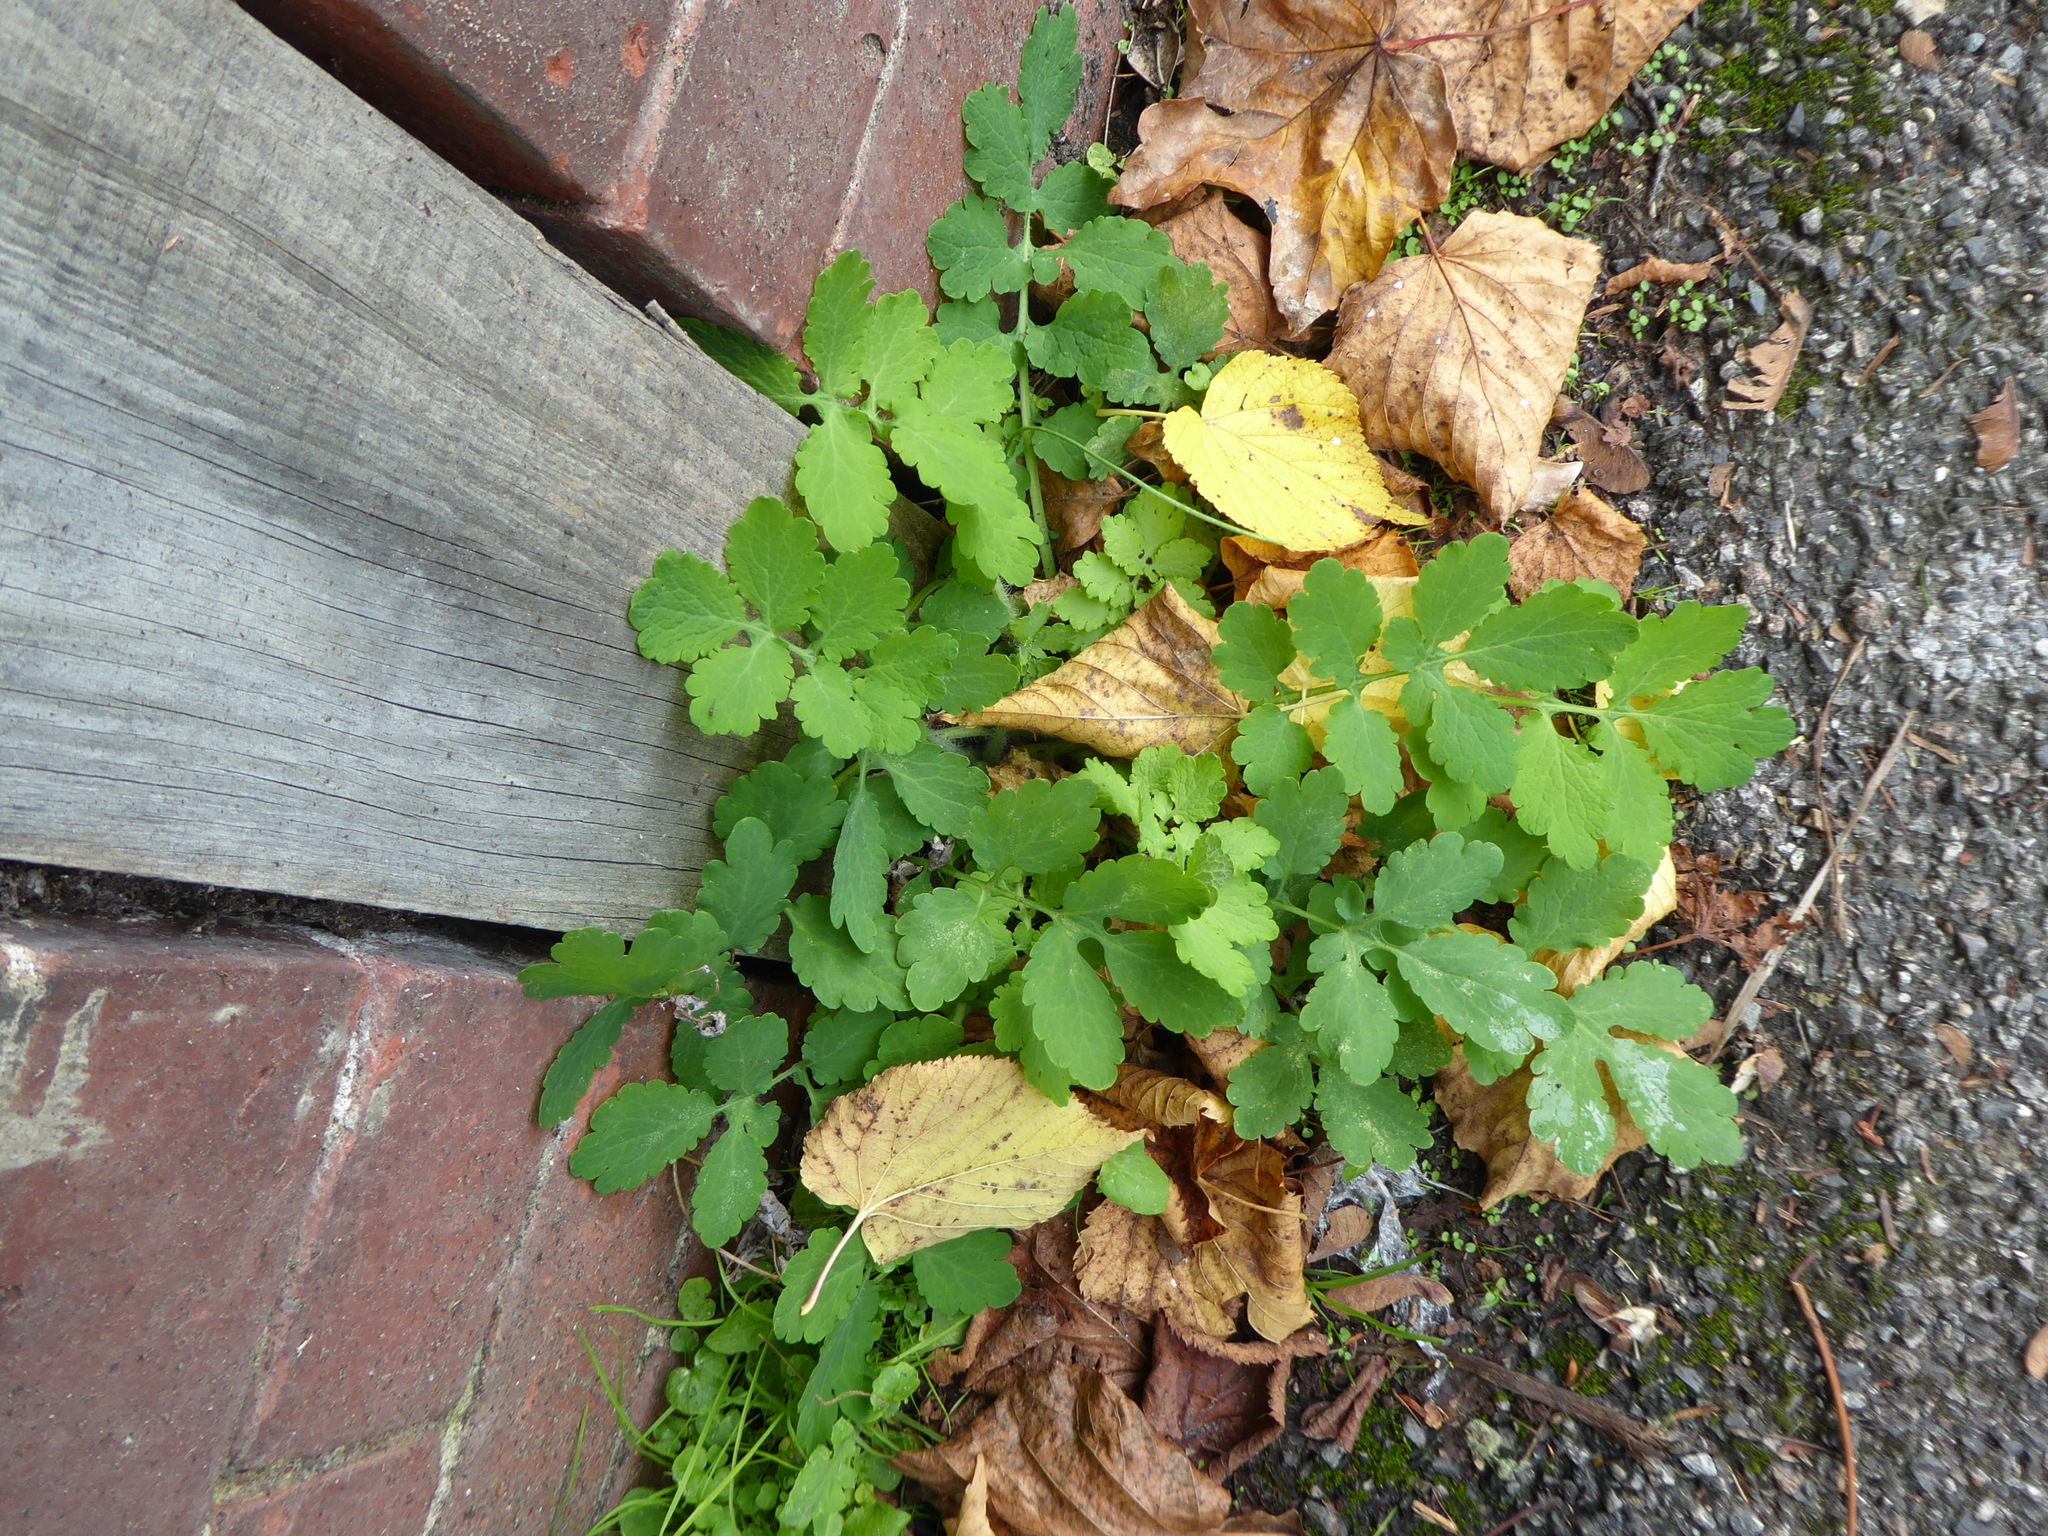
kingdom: Plantae
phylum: Tracheophyta
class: Magnoliopsida
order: Ranunculales
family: Papaveraceae
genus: Chelidonium
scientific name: Chelidonium majus
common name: Greater celandine
